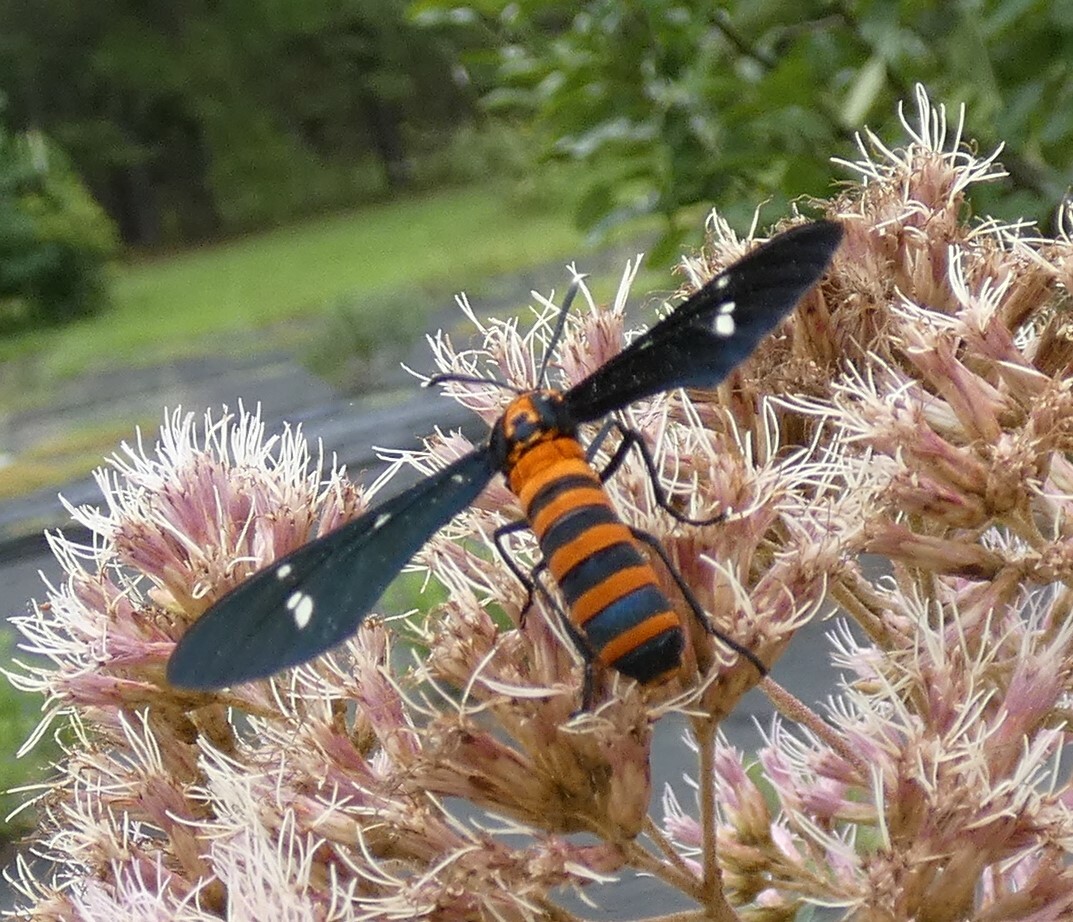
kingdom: Animalia
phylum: Arthropoda
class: Insecta
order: Lepidoptera
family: Erebidae
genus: Syntomeida
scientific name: Syntomeida ipomoeae
